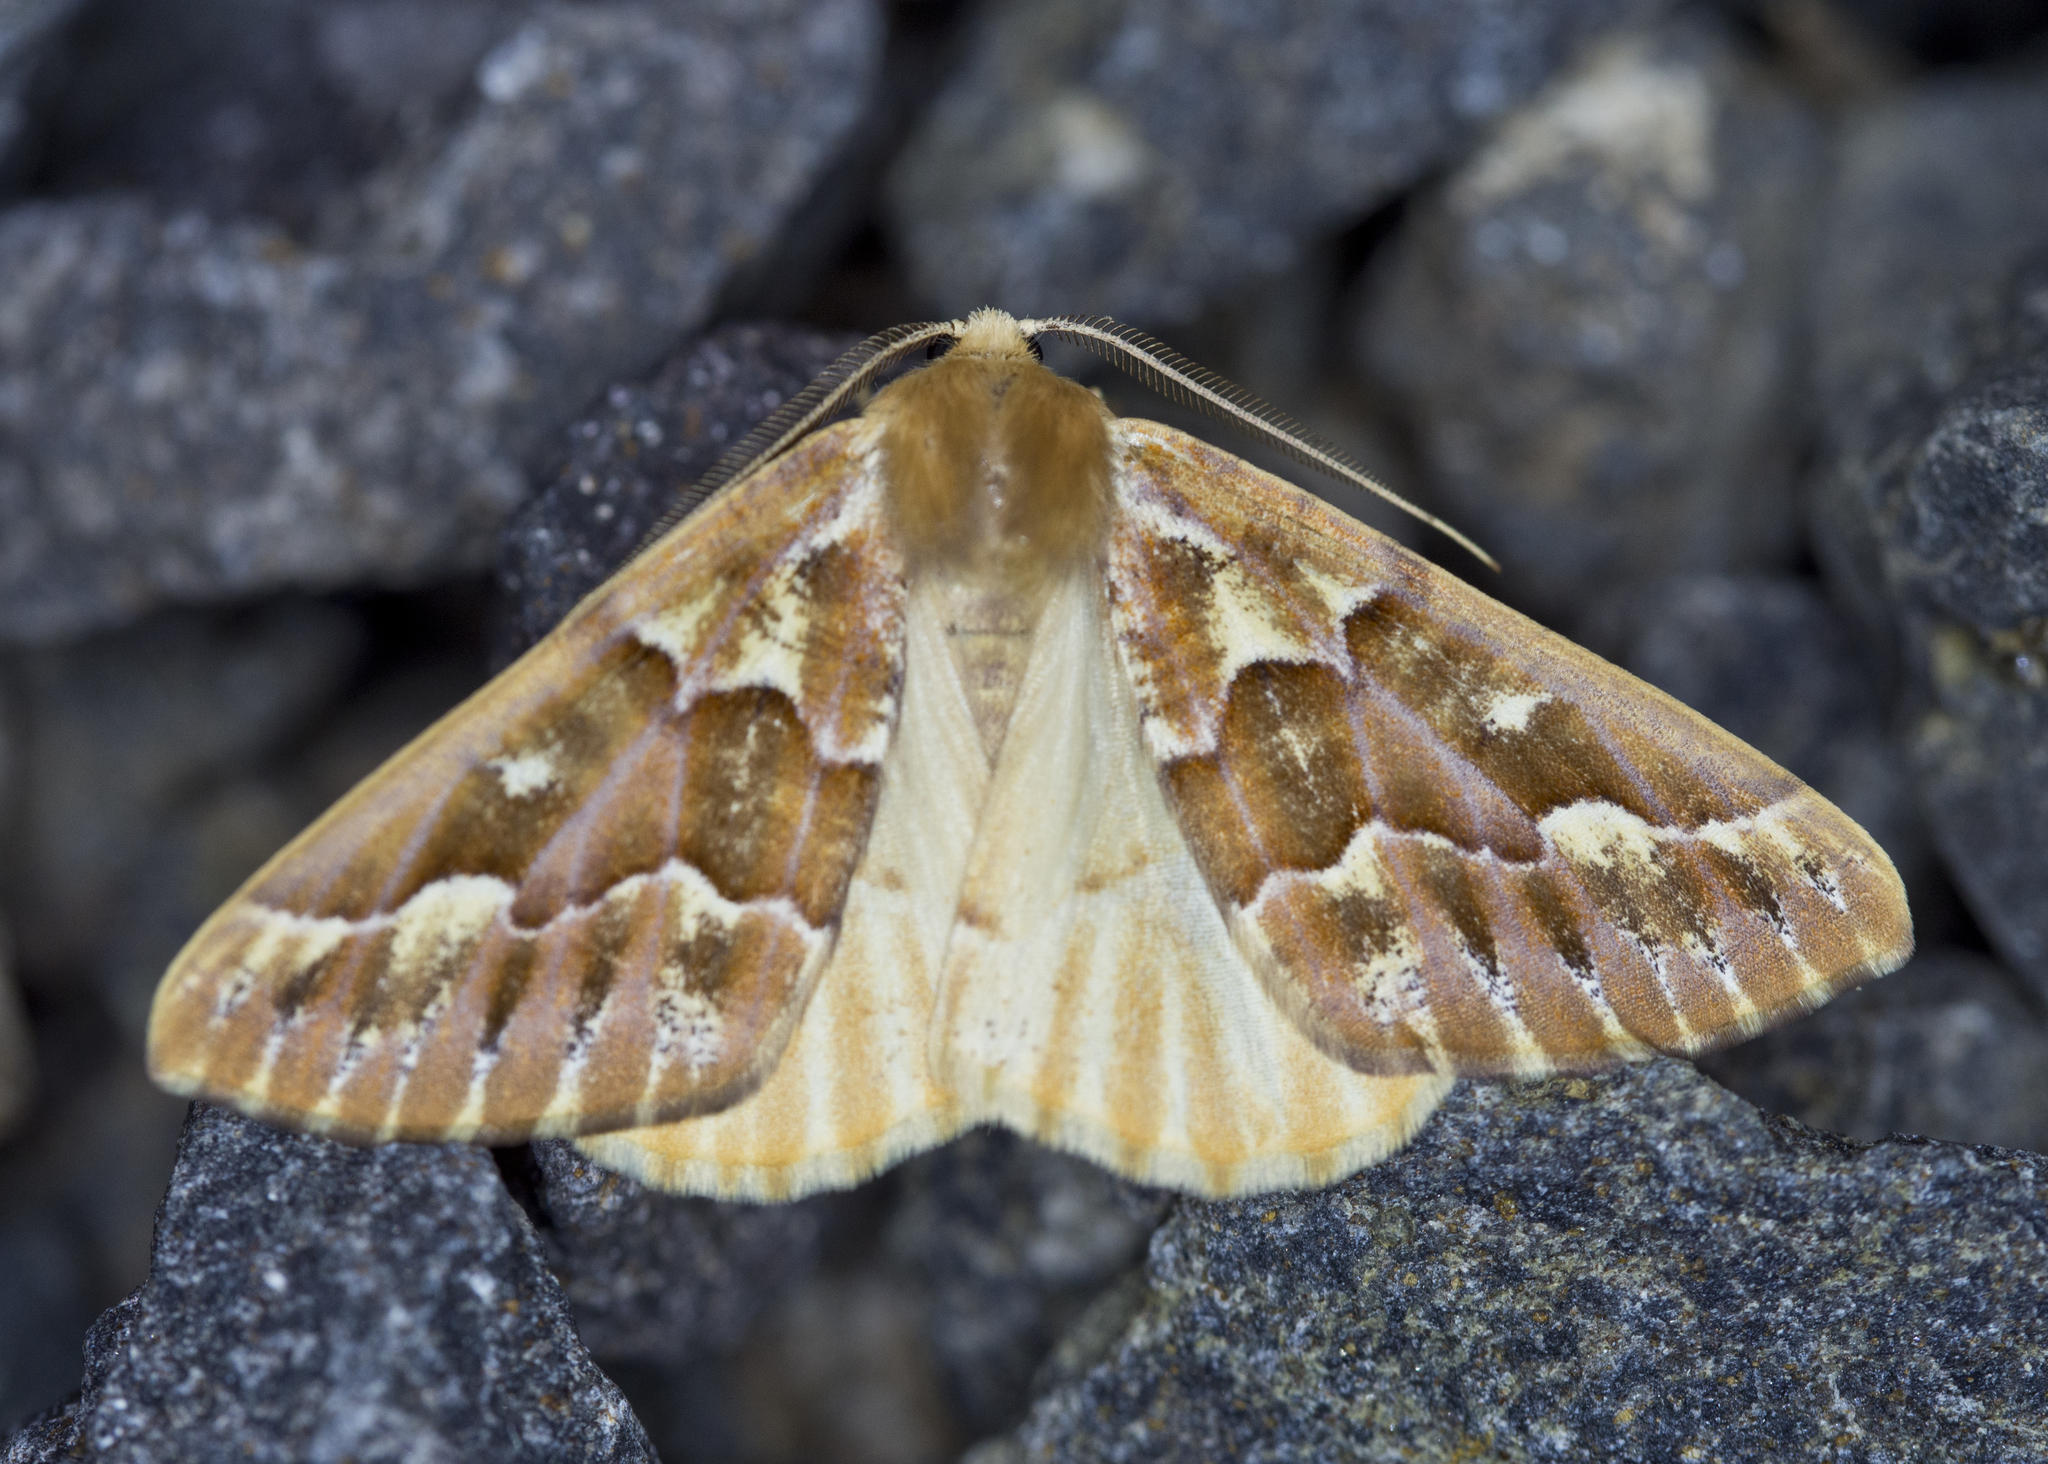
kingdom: Animalia
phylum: Arthropoda
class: Insecta
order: Lepidoptera
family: Geometridae
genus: Caripeta
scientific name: Caripeta aequaliaria
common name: Red girdle moth
